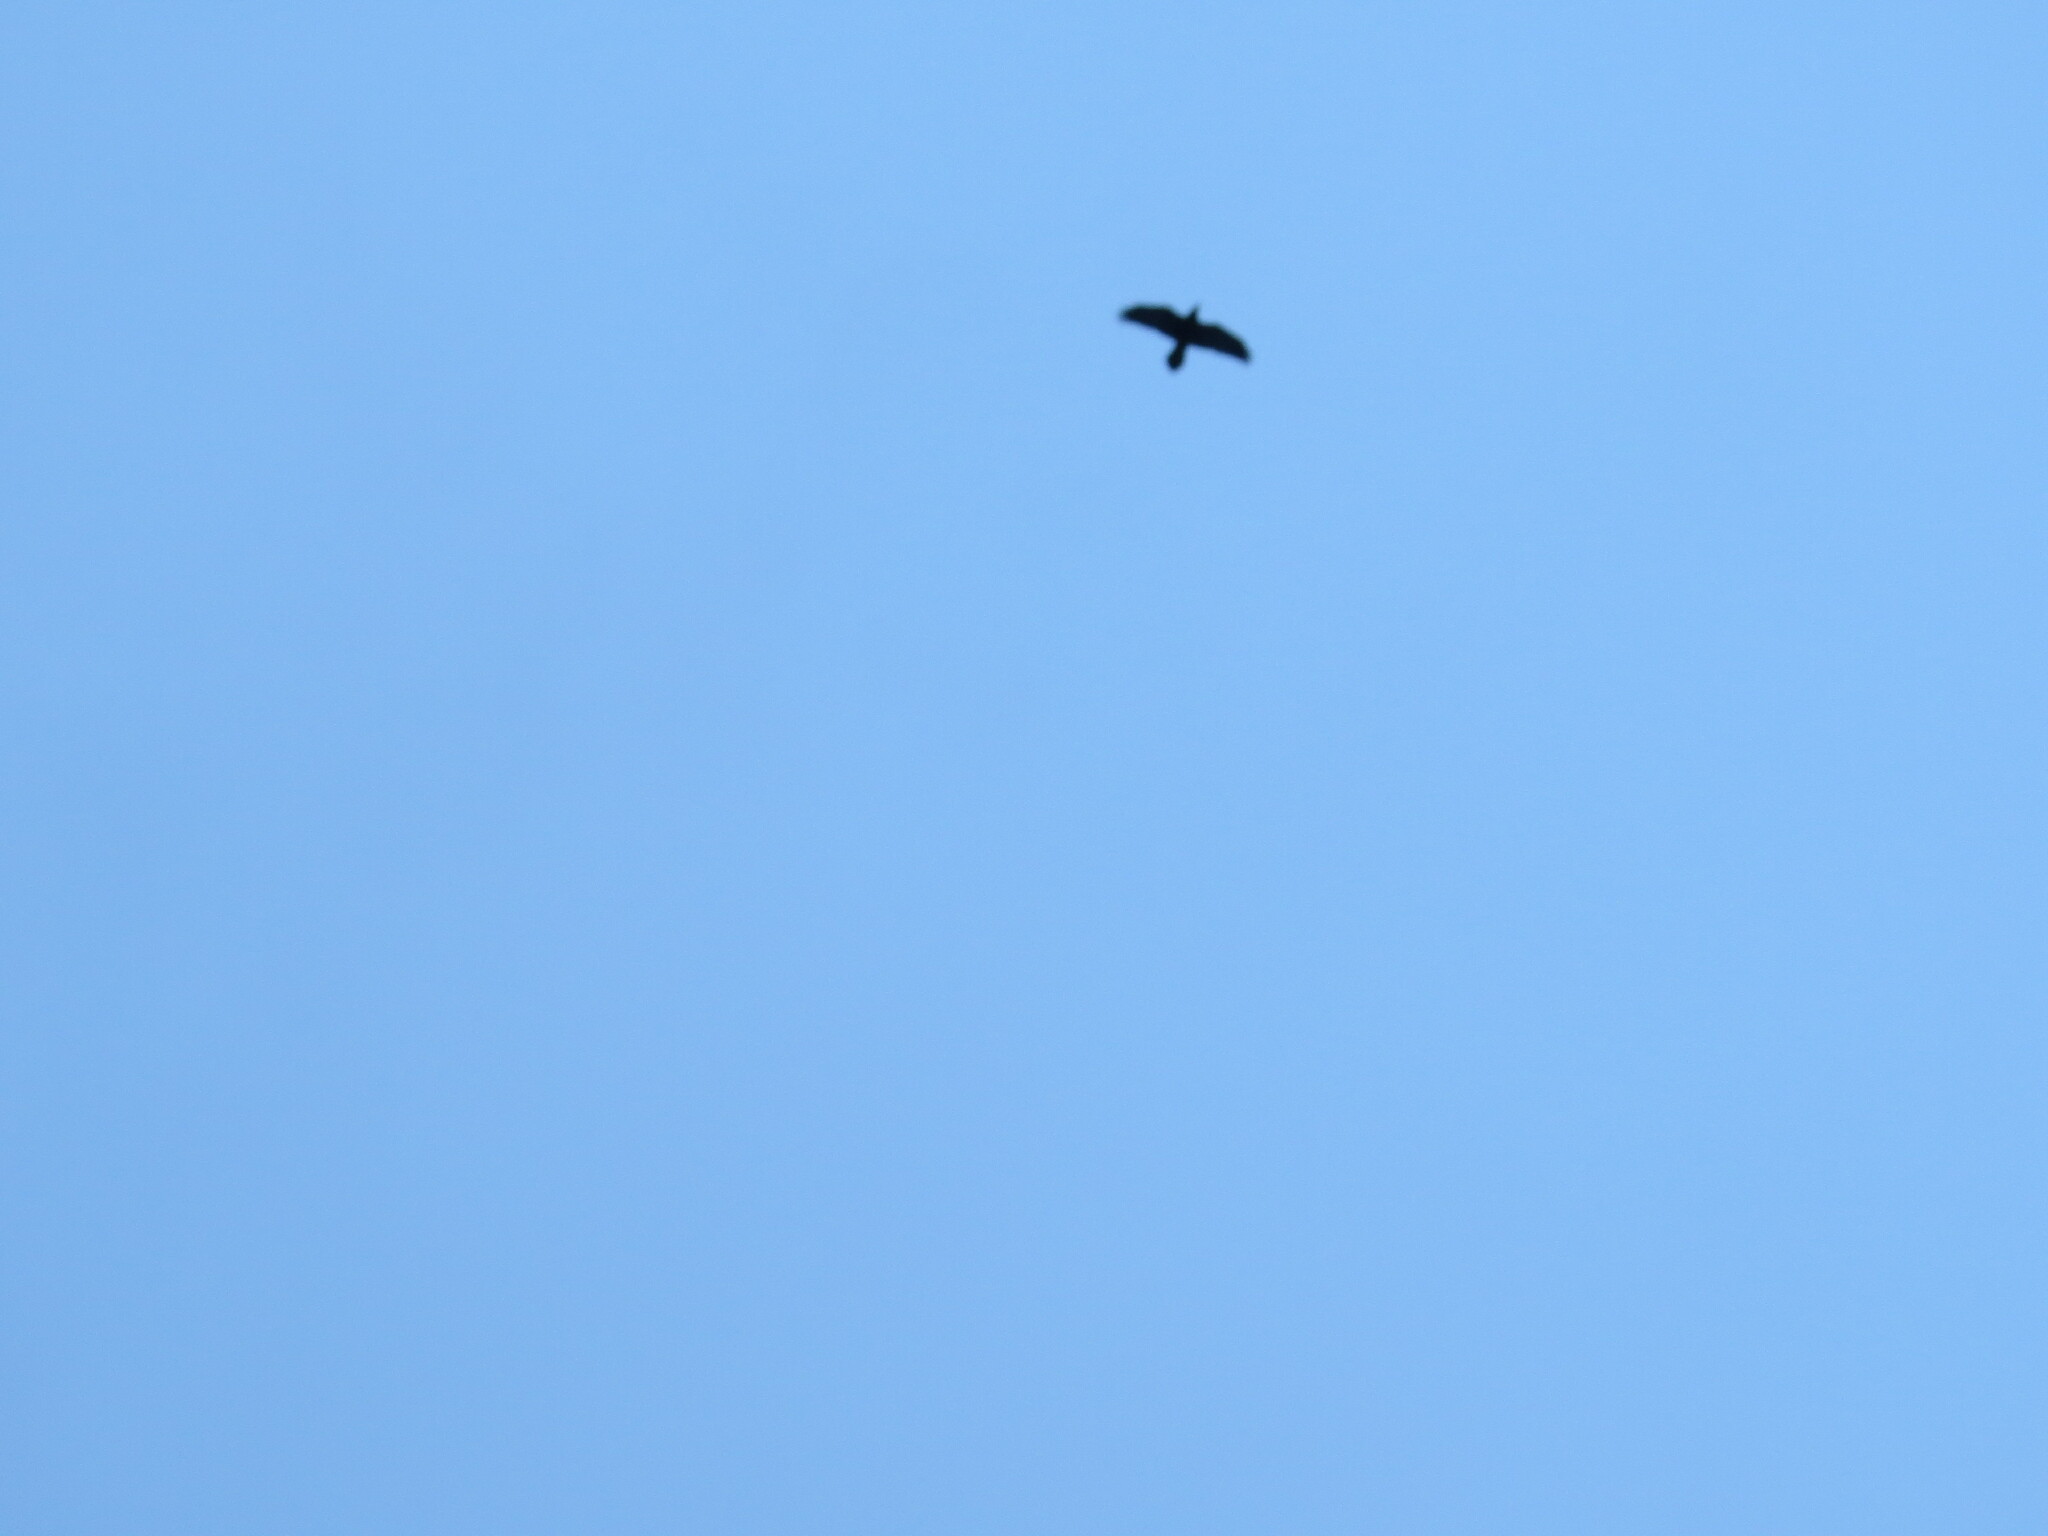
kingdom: Animalia
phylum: Chordata
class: Aves
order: Passeriformes
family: Corvidae
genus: Corvus
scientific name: Corvus corax
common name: Common raven
